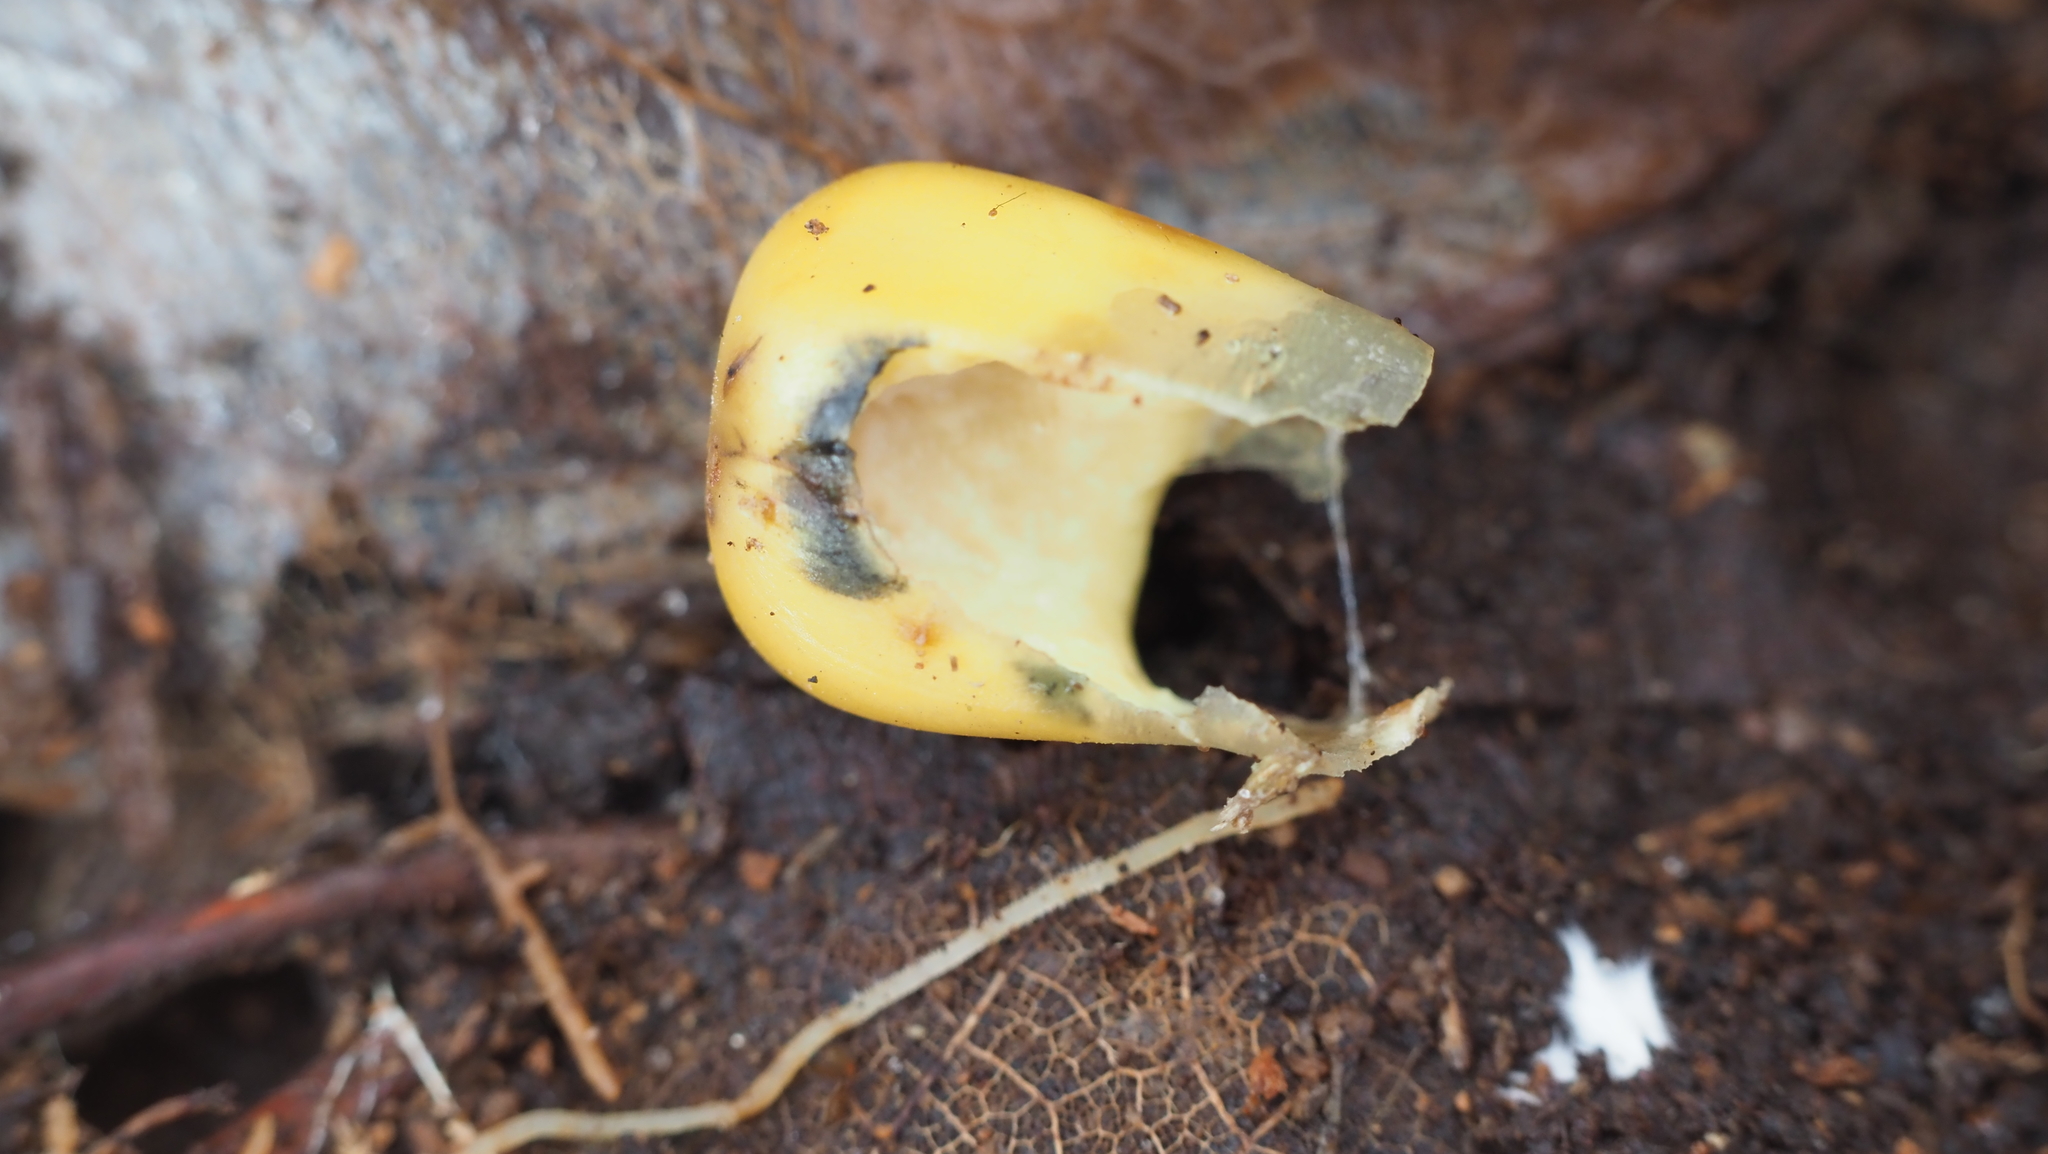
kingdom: Plantae
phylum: Tracheophyta
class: Liliopsida
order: Poales
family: Poaceae
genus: Zea
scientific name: Zea mays
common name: Maize
